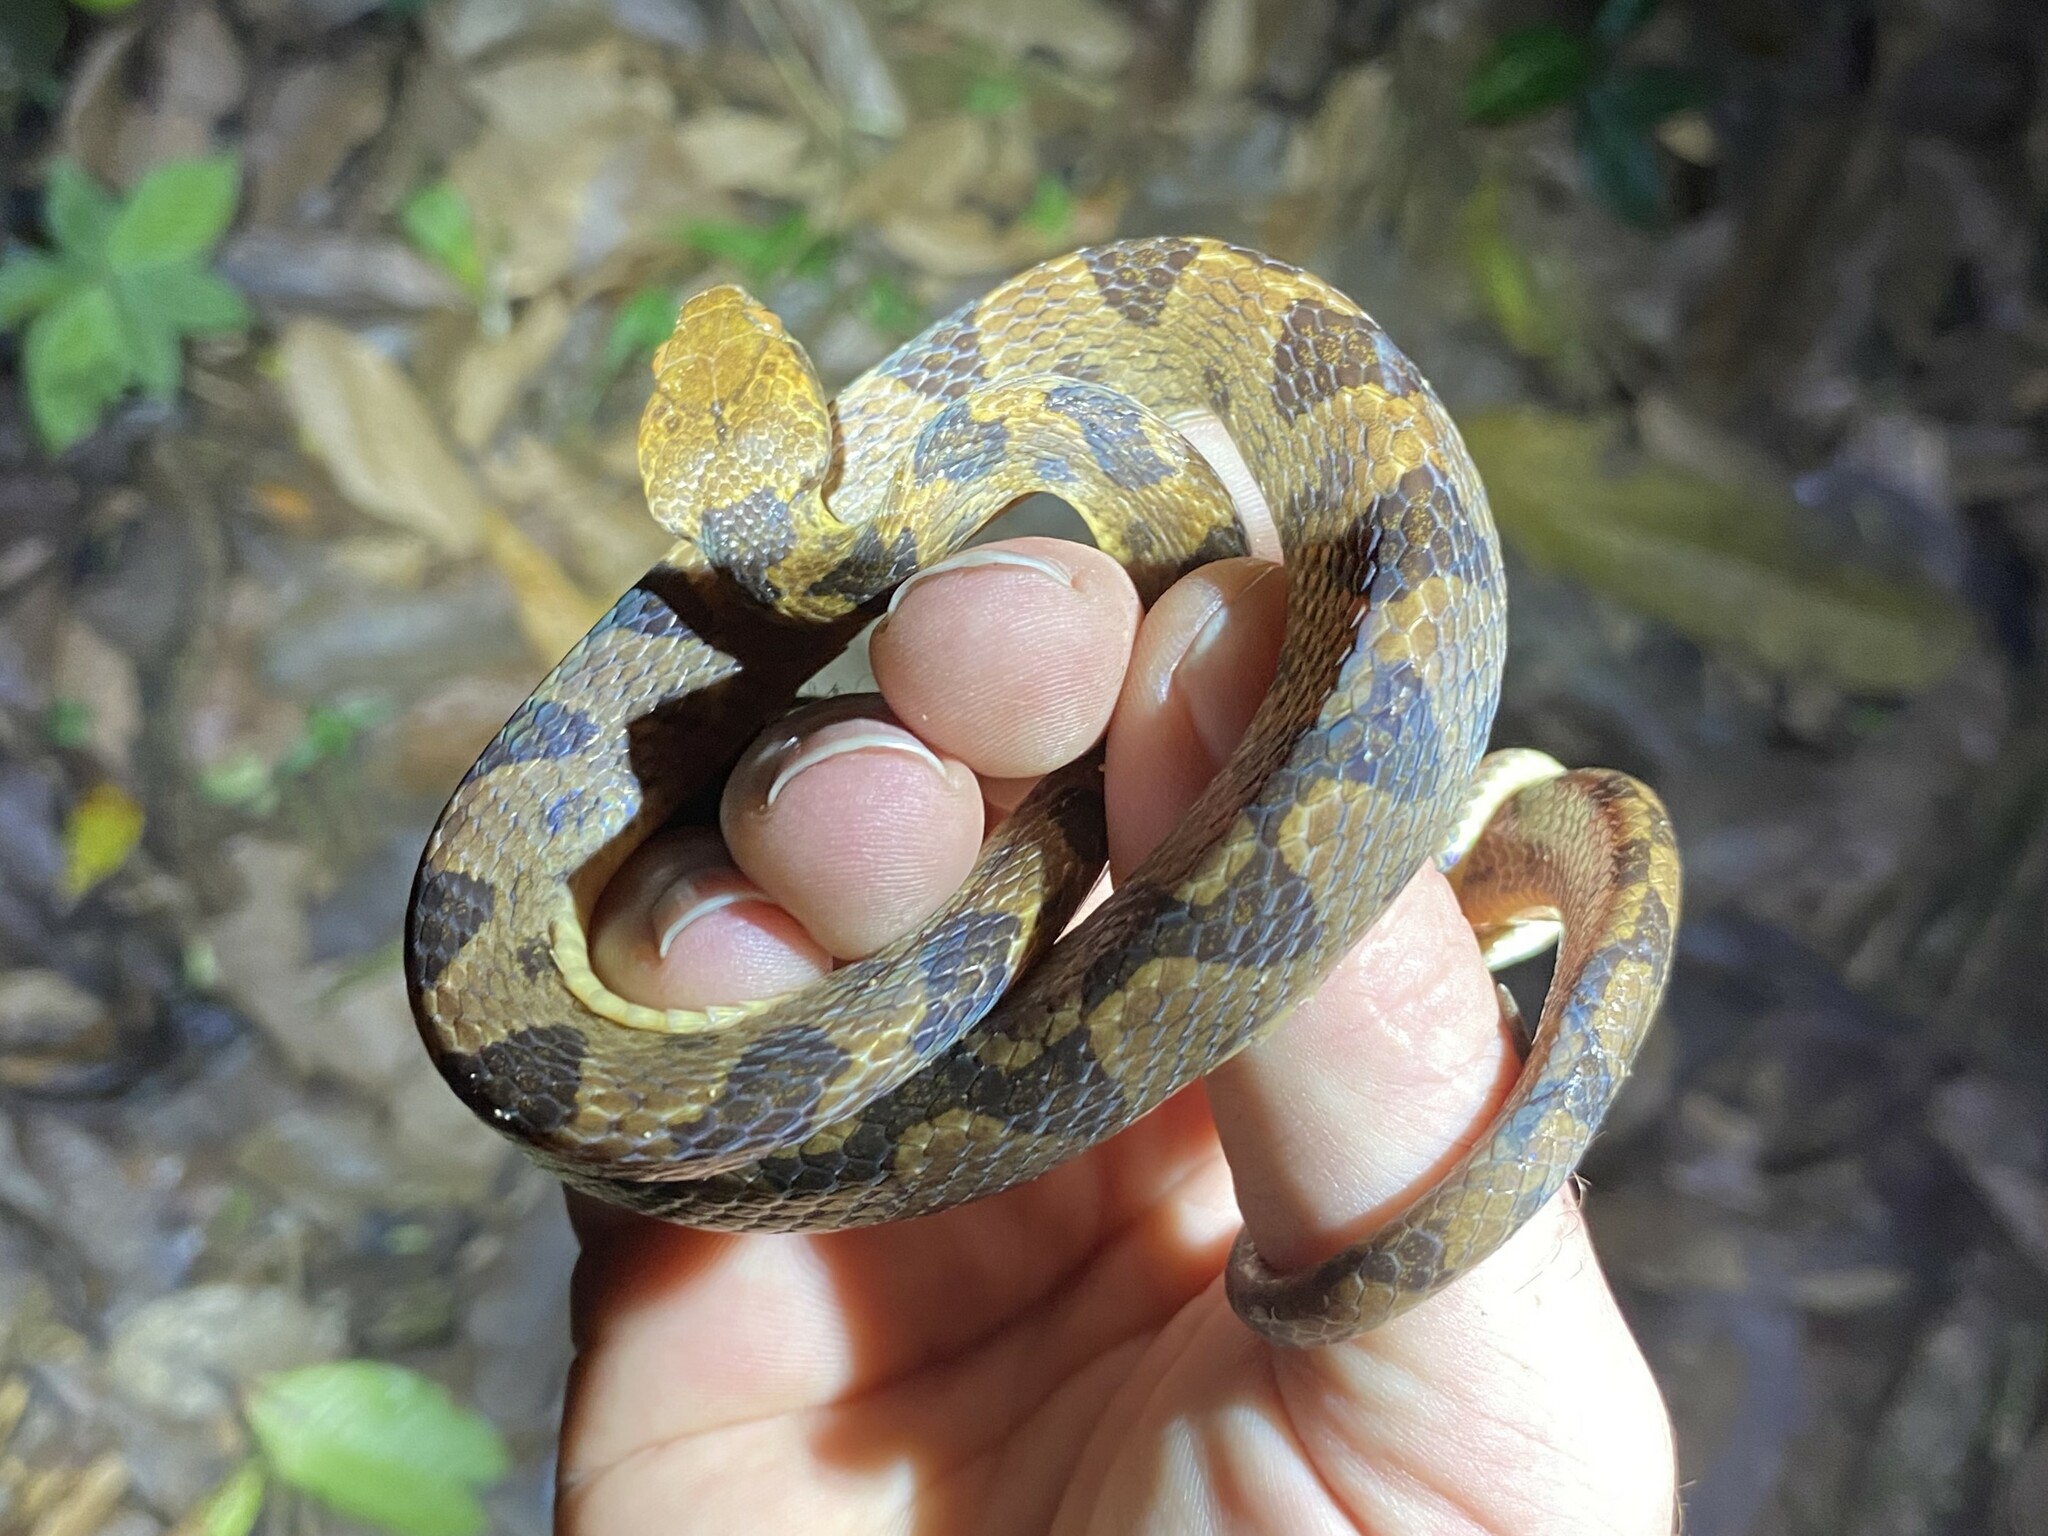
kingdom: Animalia
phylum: Chordata
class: Squamata
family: Colubridae
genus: Leptodeira
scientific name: Leptodeira ornata
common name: Northern cat-eyed snake
